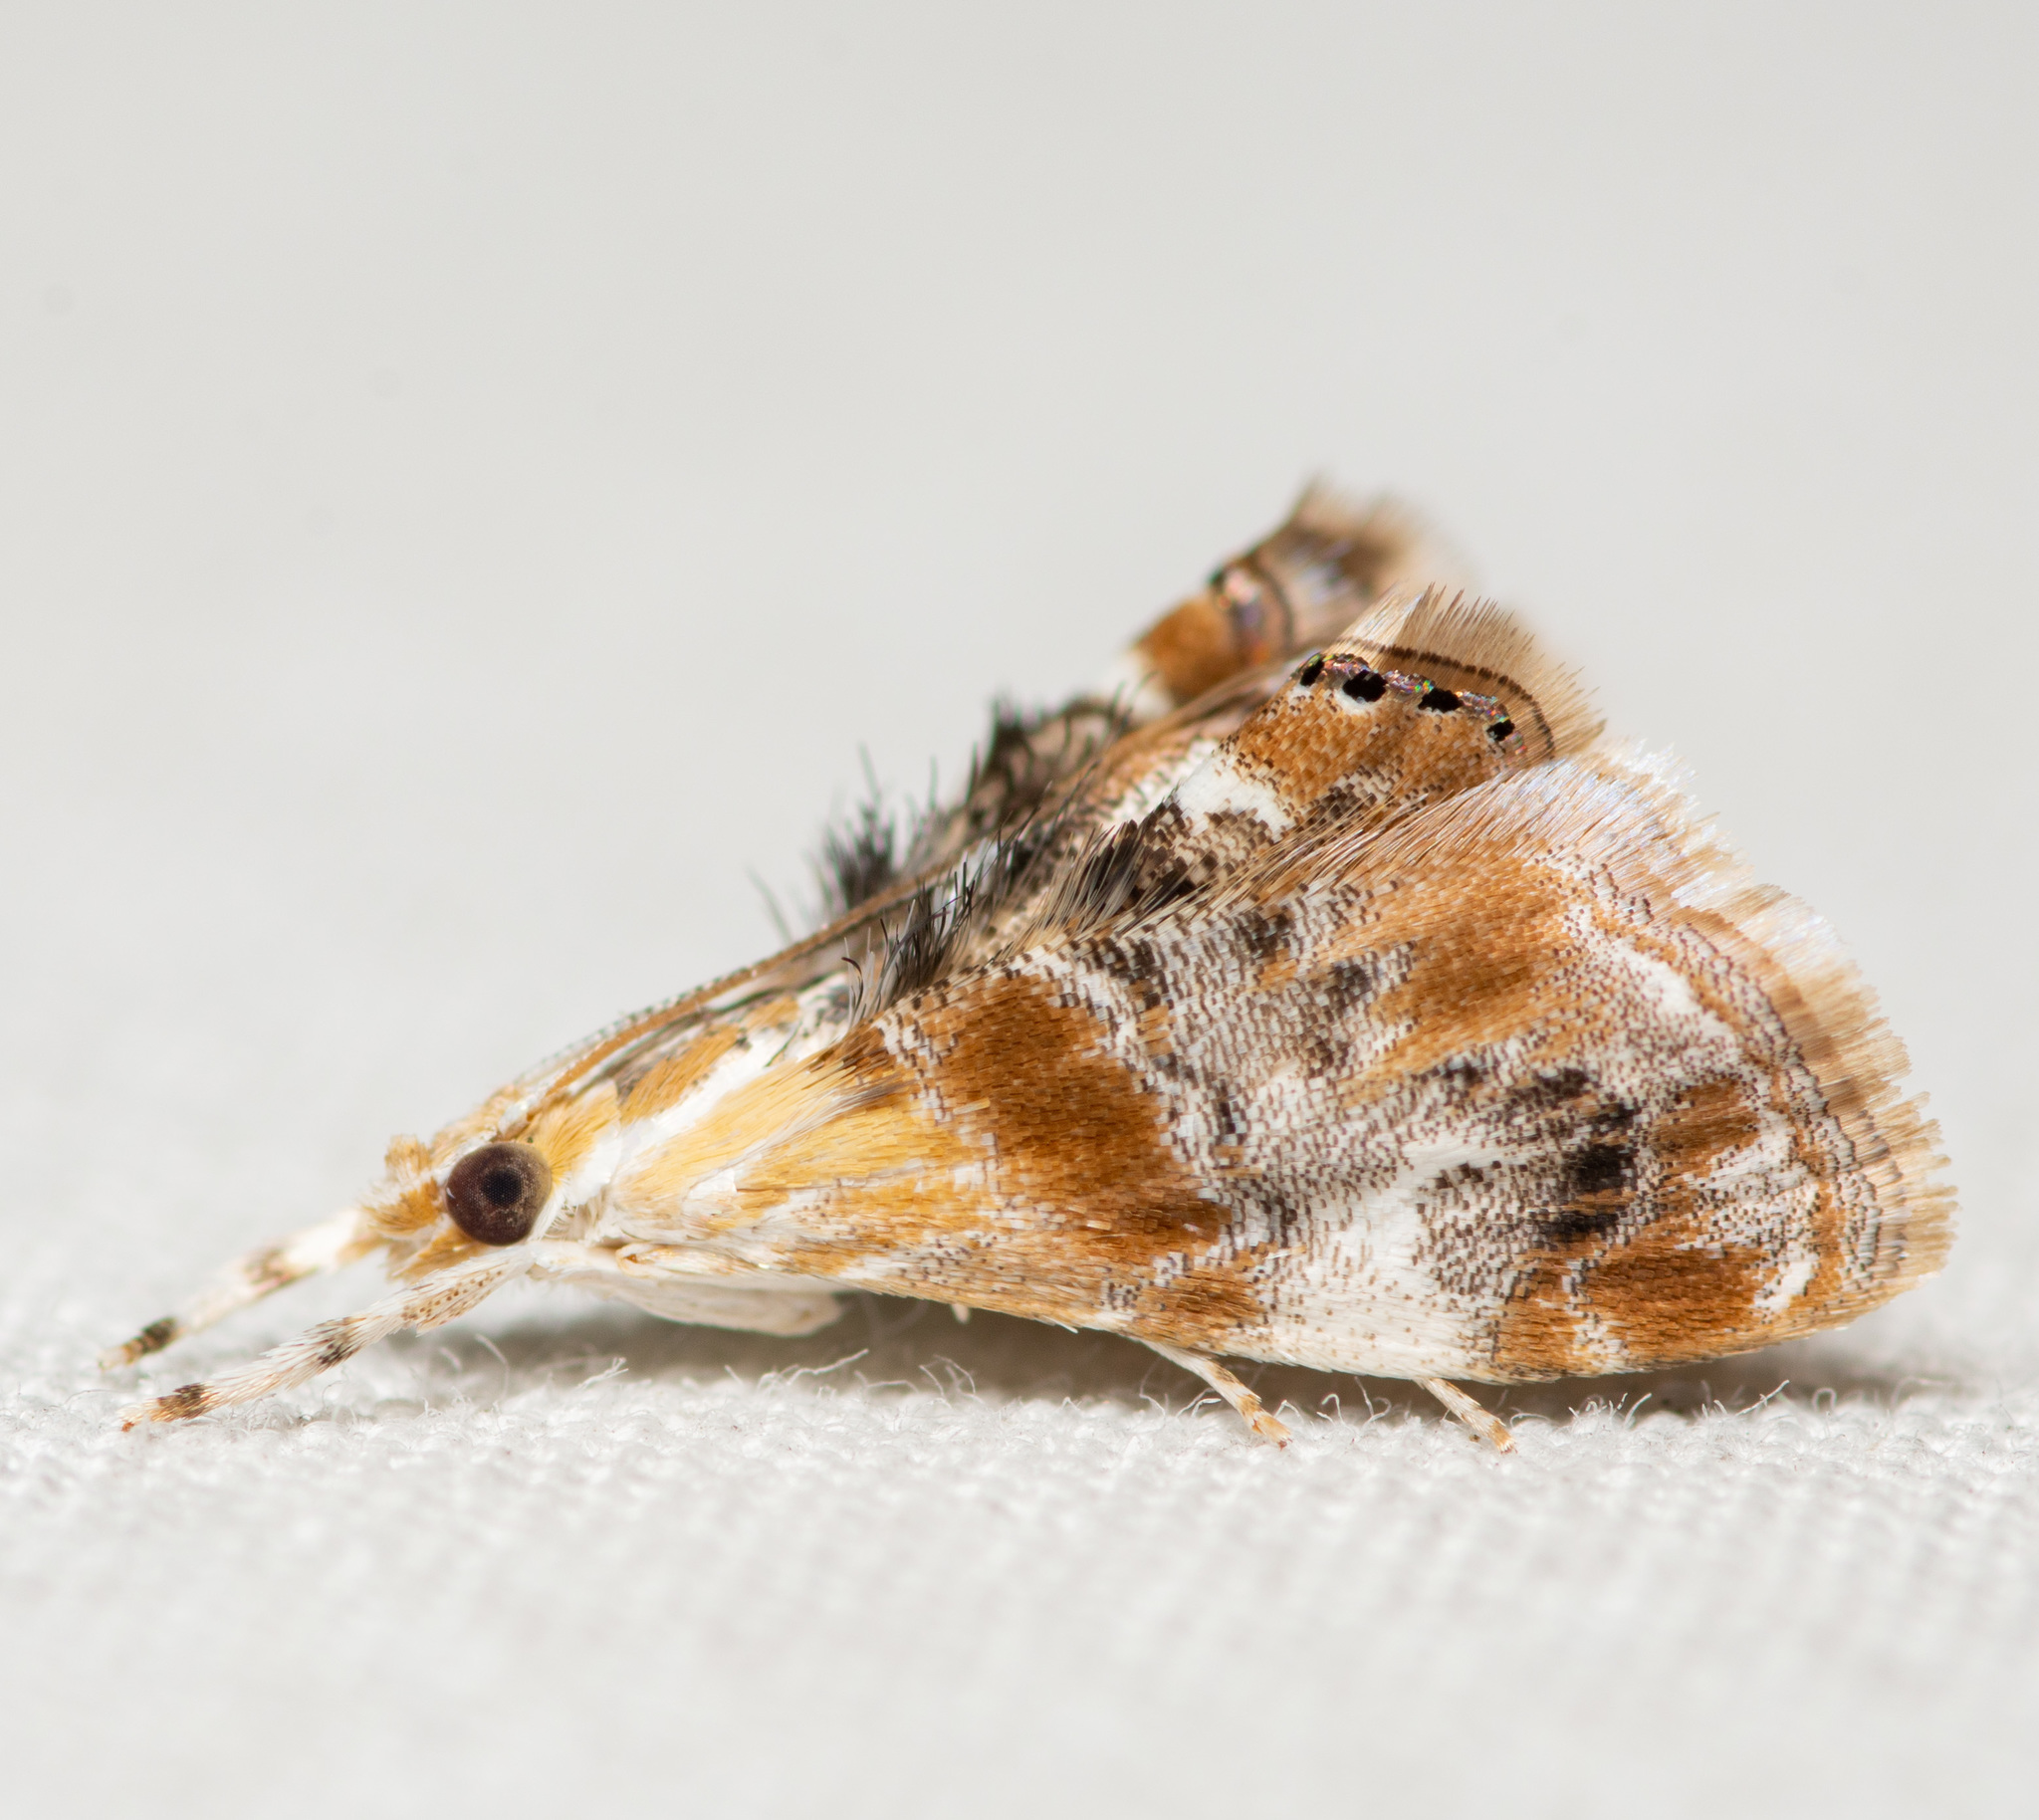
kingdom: Animalia
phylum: Arthropoda
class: Insecta
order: Lepidoptera
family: Crambidae
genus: Dicymolomia
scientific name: Dicymolomia julianalis
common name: Julia's dicymolomia moth
